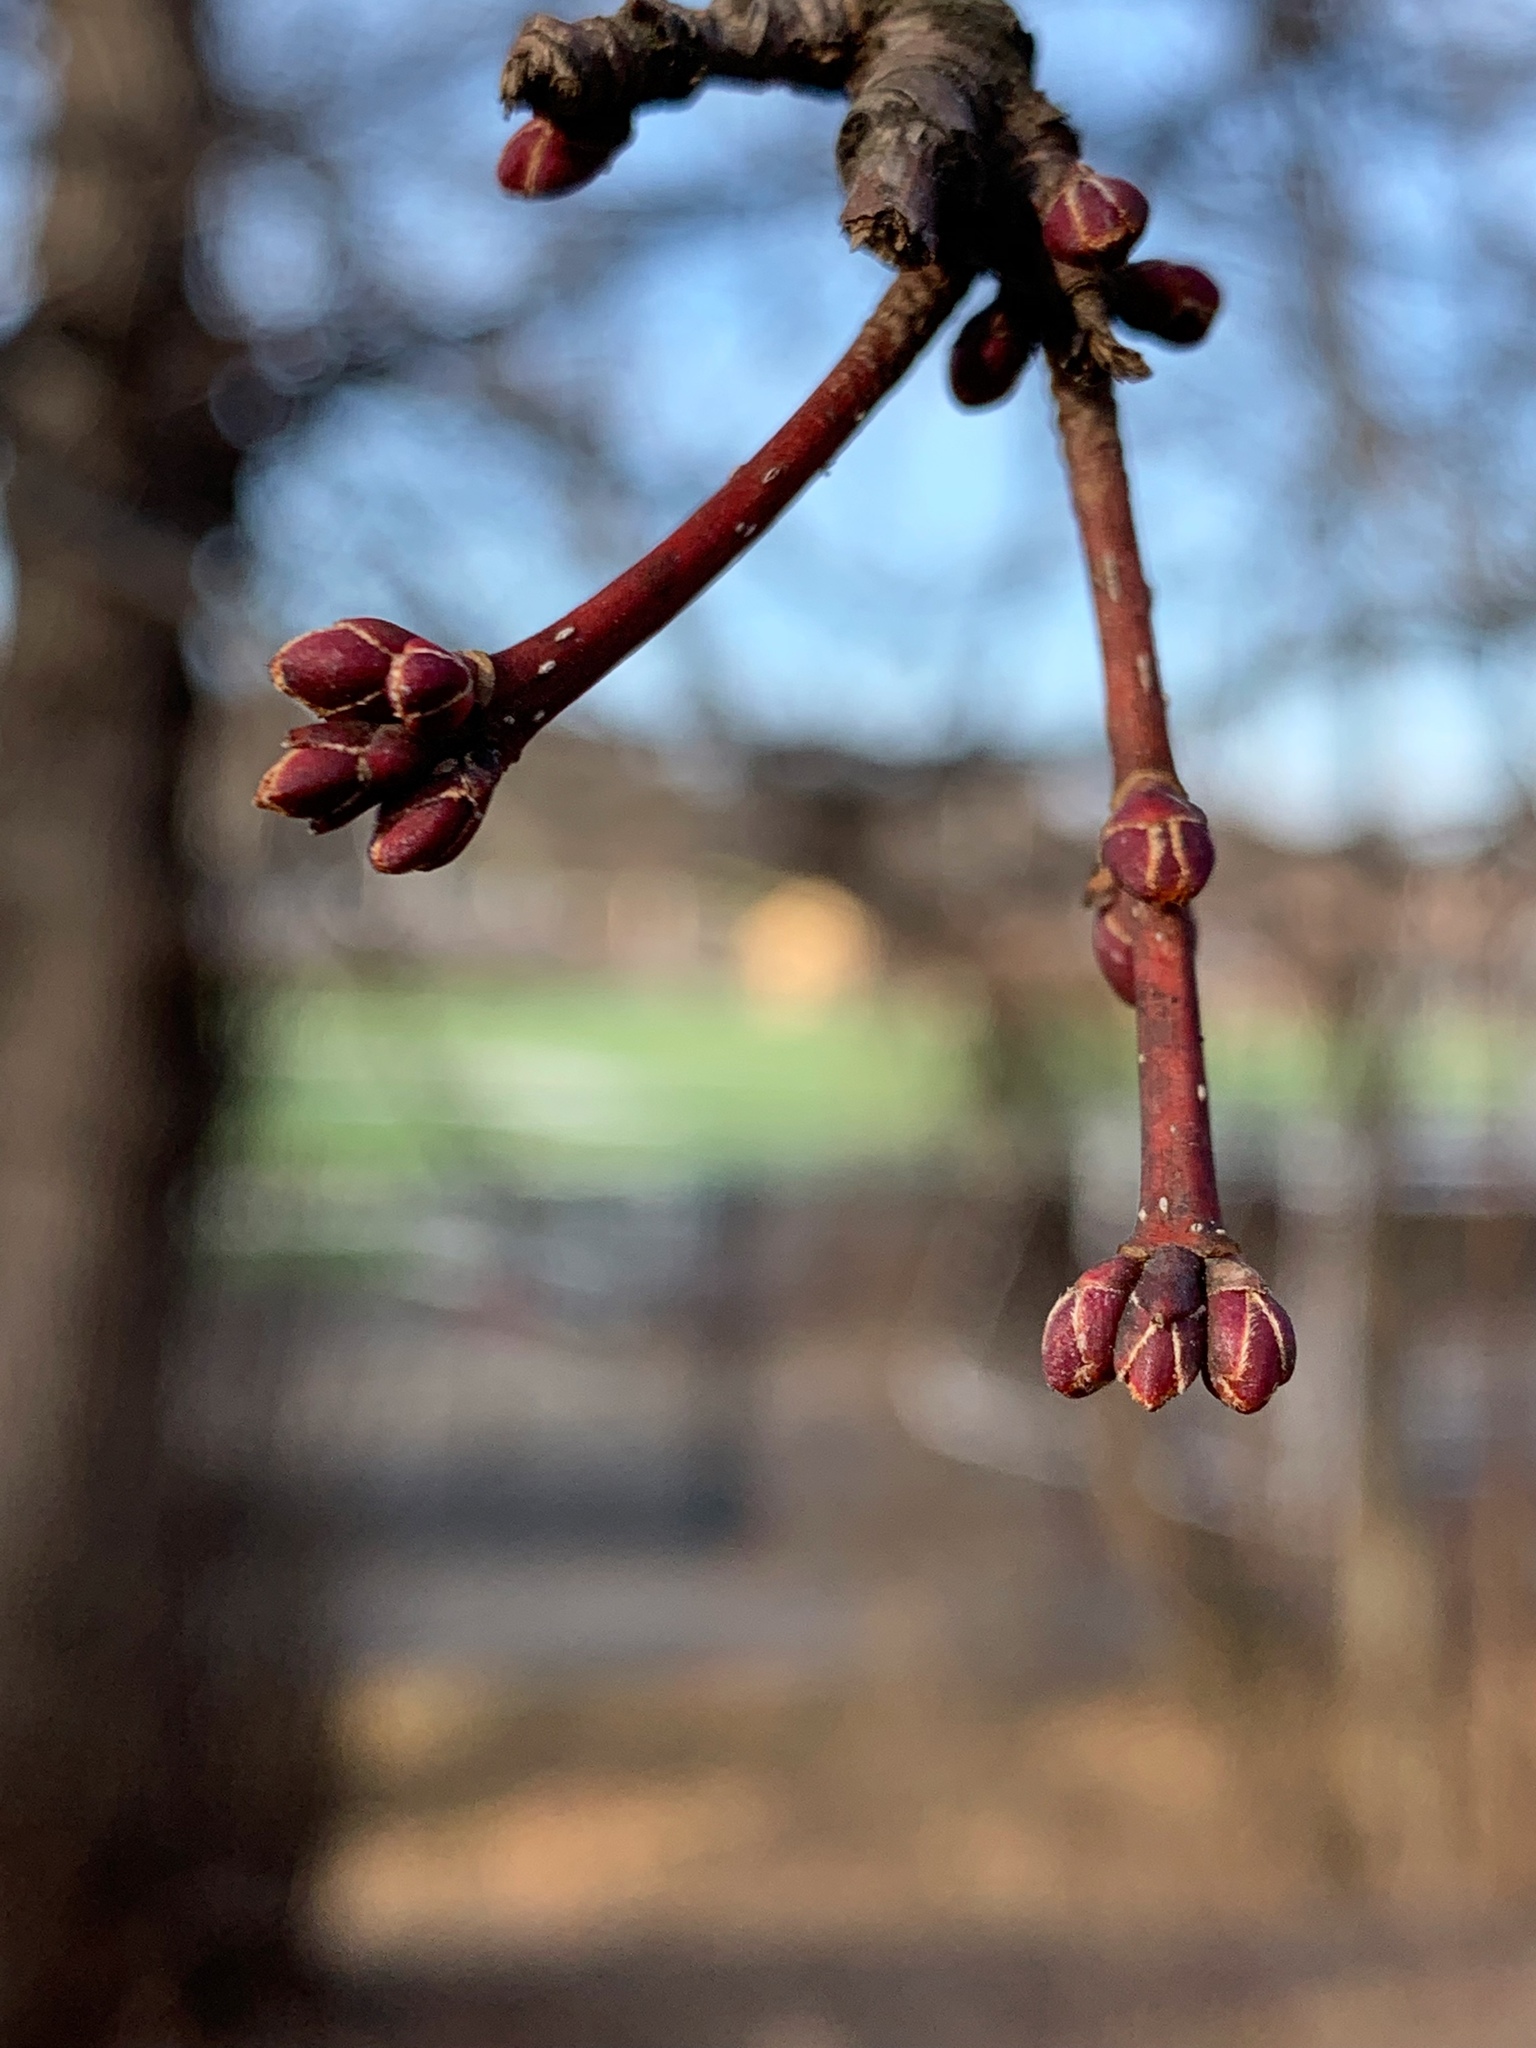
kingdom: Plantae
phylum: Tracheophyta
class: Magnoliopsida
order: Sapindales
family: Sapindaceae
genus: Acer
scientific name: Acer rubrum
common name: Red maple
